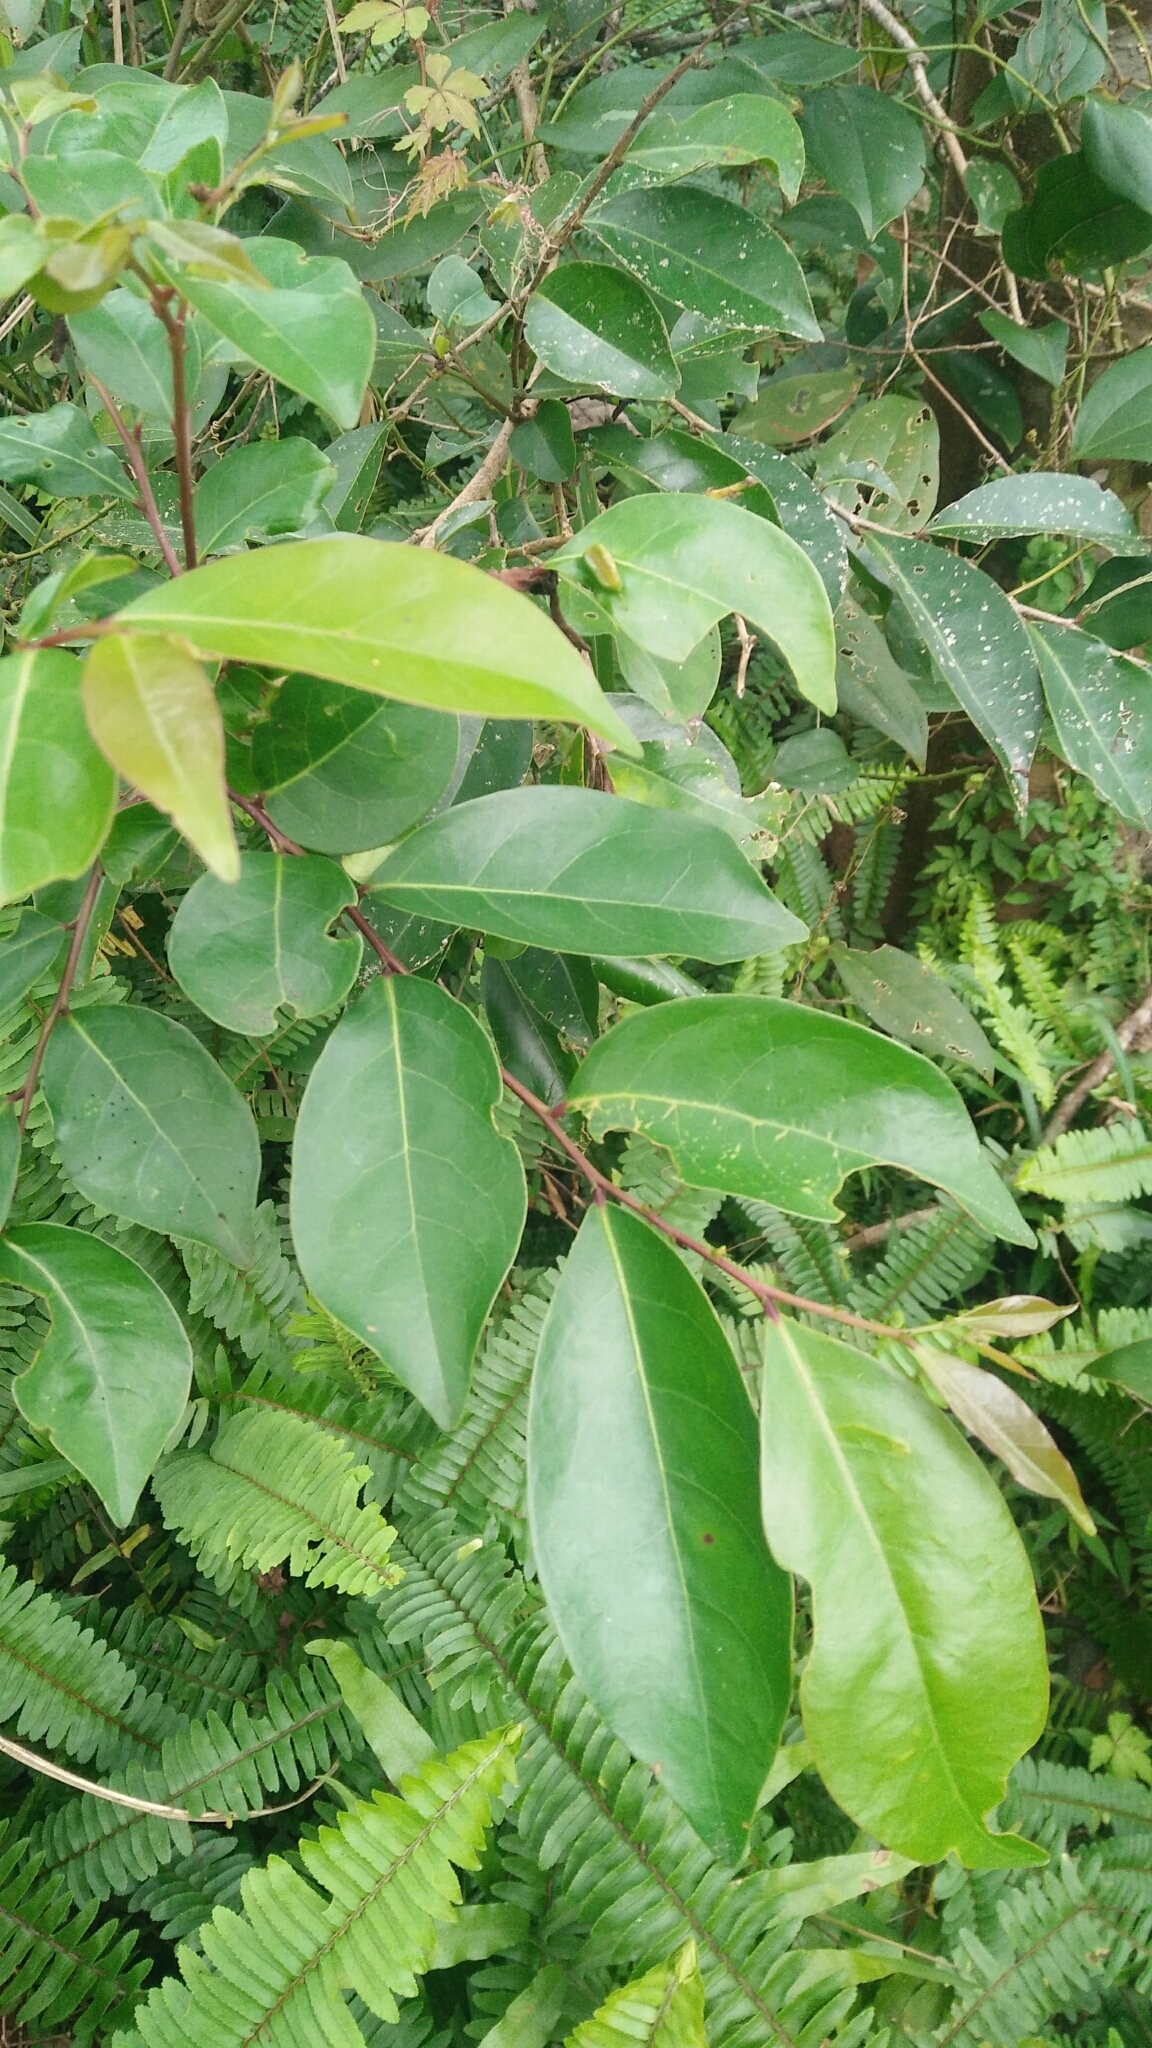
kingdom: Plantae
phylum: Tracheophyta
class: Magnoliopsida
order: Malpighiales
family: Phyllanthaceae
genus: Glochidion
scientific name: Glochidion rubrum
